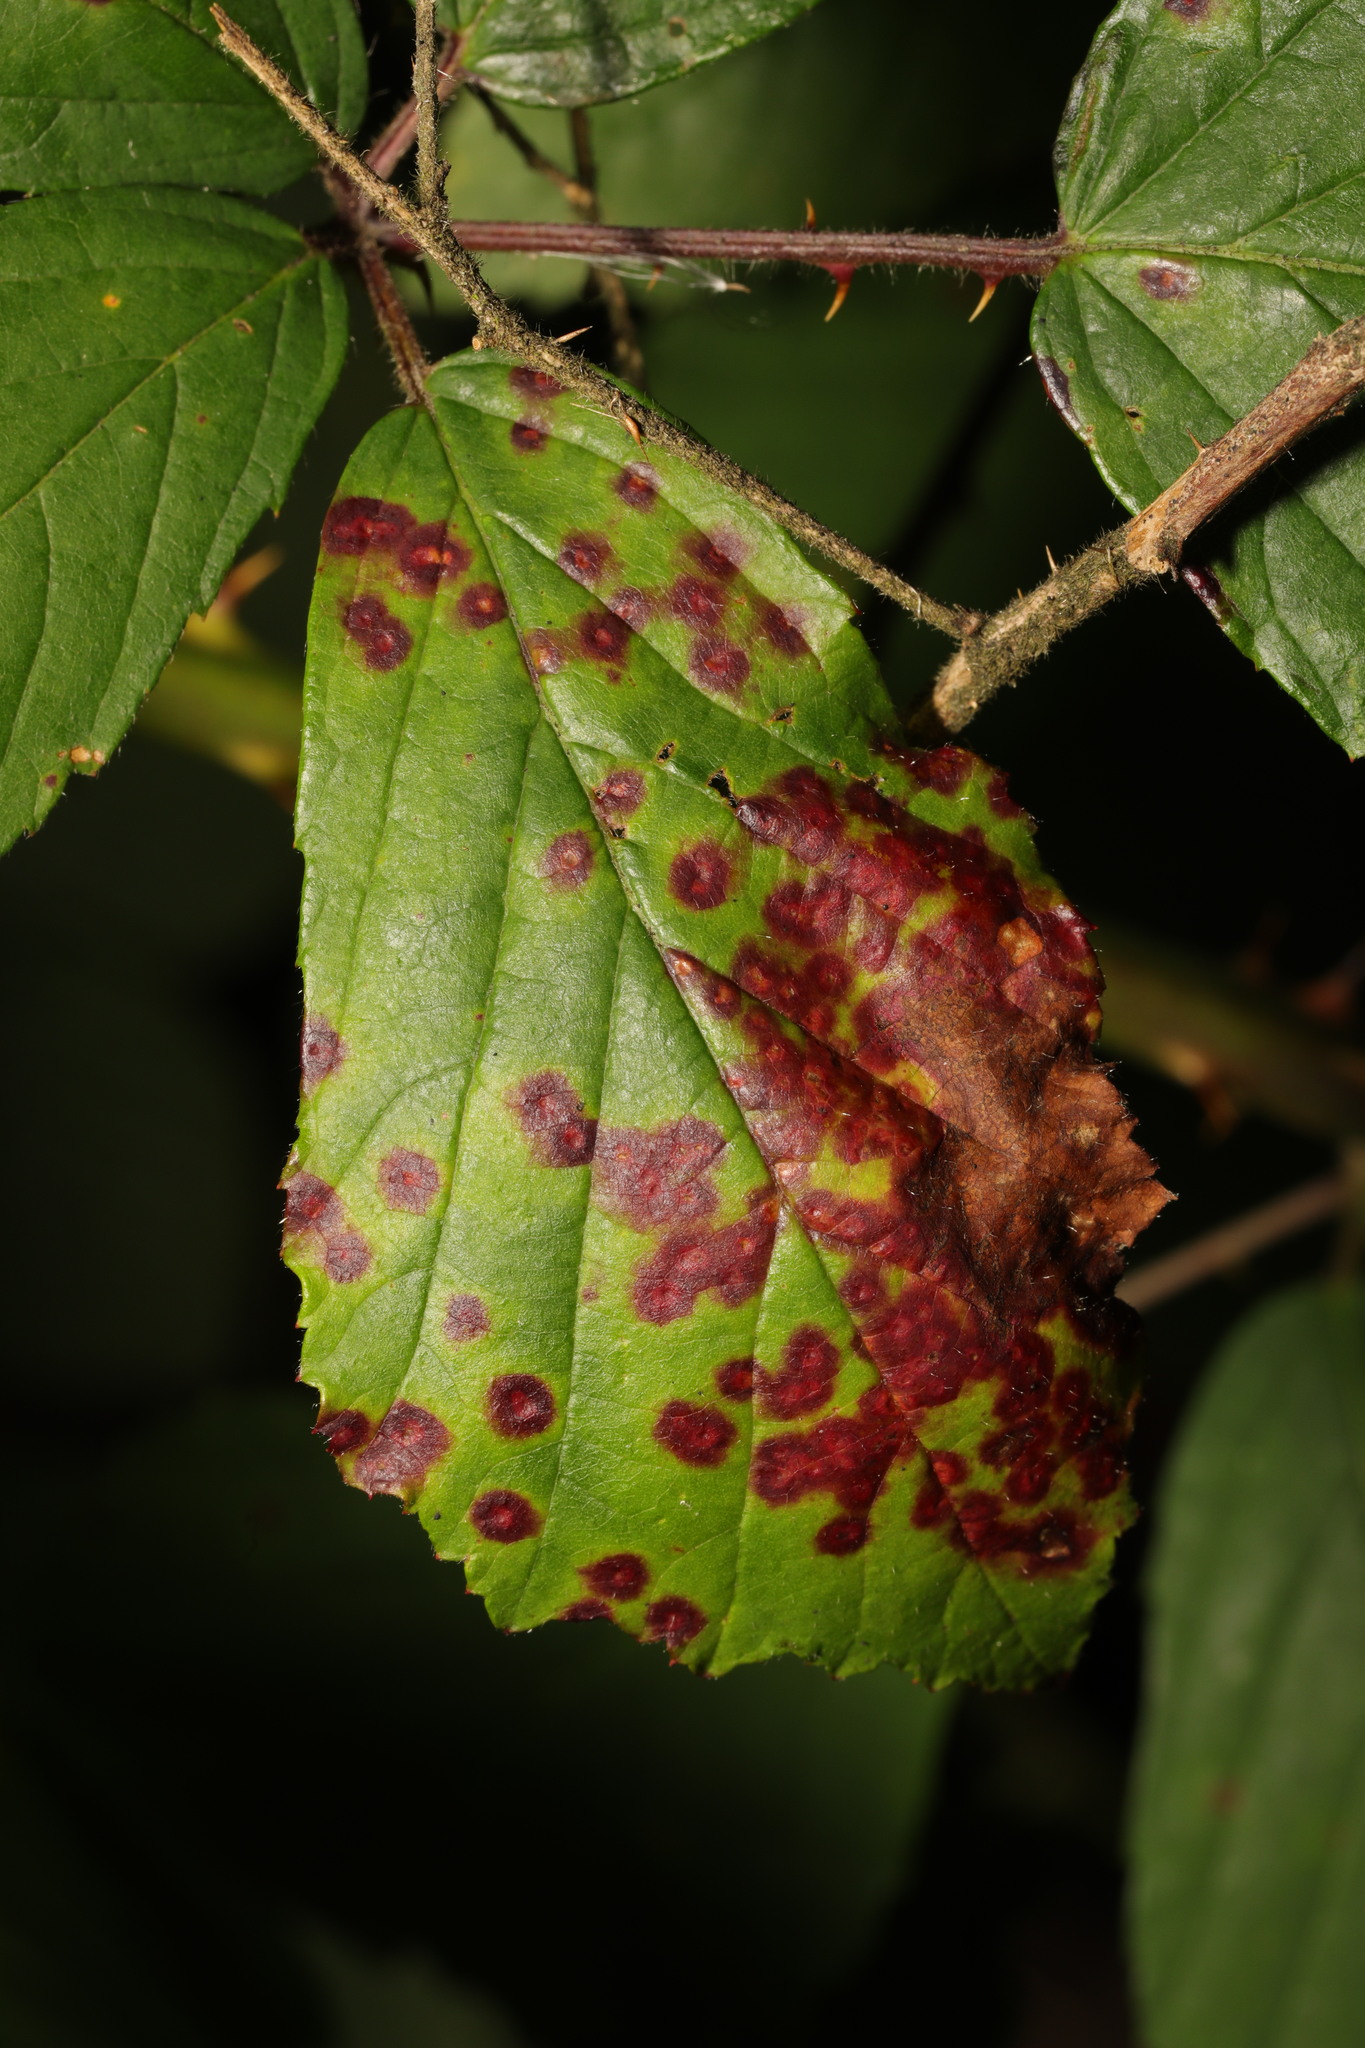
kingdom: Fungi
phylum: Basidiomycota
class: Pucciniomycetes
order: Pucciniales
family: Phragmidiaceae
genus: Phragmidium
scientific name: Phragmidium violaceum
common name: Violet bramble rust
